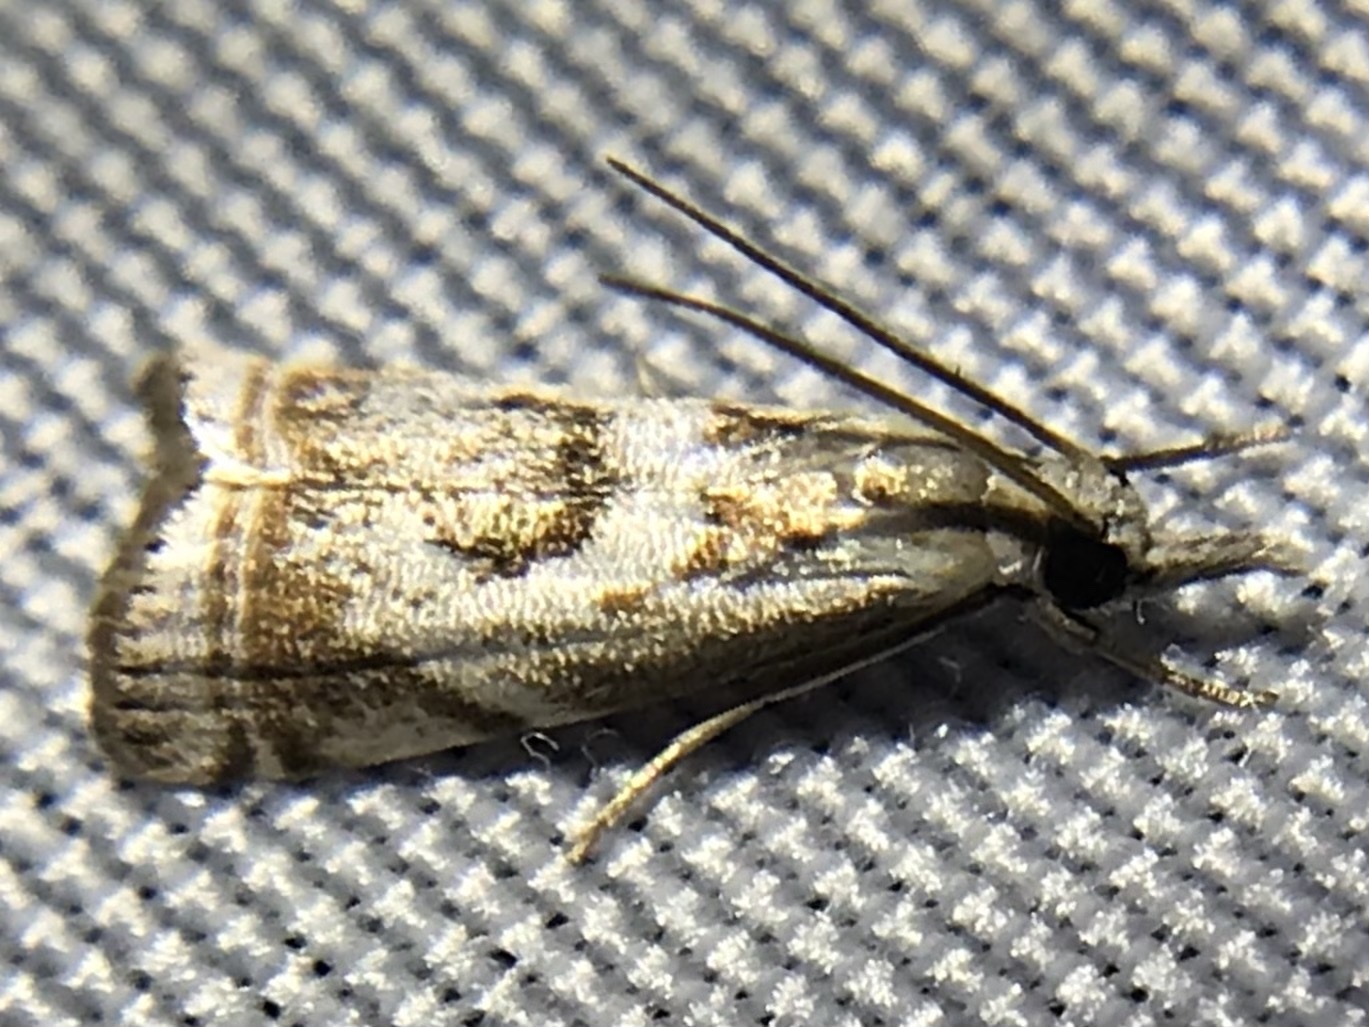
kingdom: Animalia
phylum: Arthropoda
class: Insecta
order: Lepidoptera
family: Crambidae
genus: Microcrambus
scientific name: Microcrambus elegans
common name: Elegant grass-veneer
